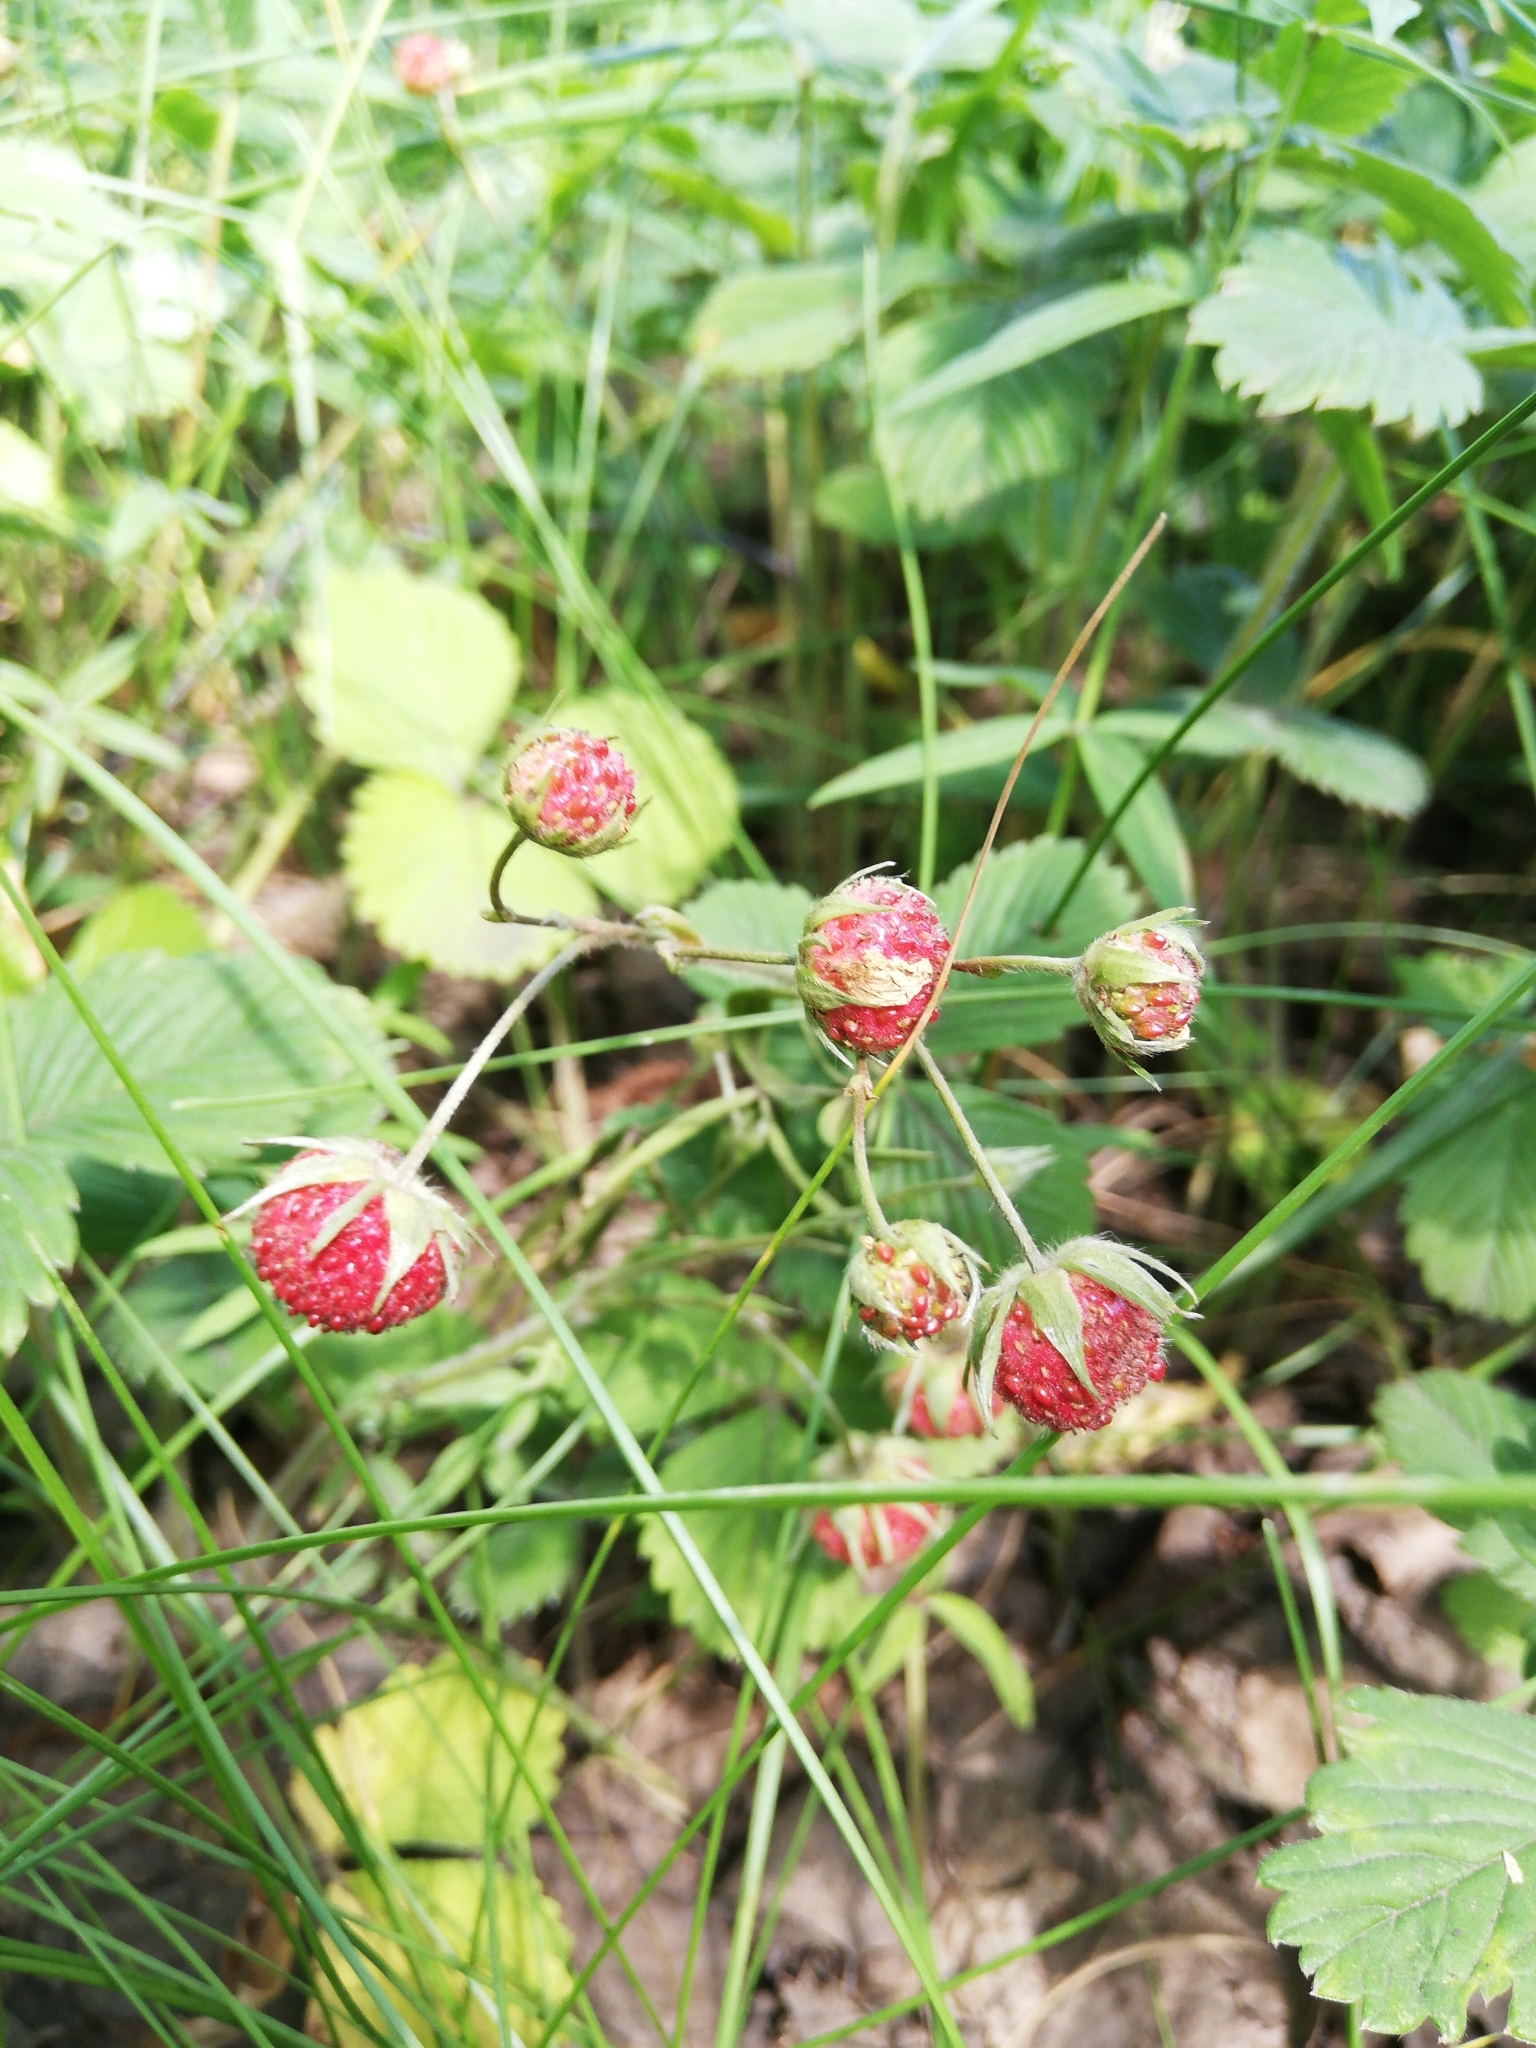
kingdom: Plantae
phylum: Tracheophyta
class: Magnoliopsida
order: Rosales
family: Rosaceae
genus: Fragaria
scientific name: Fragaria viridis
